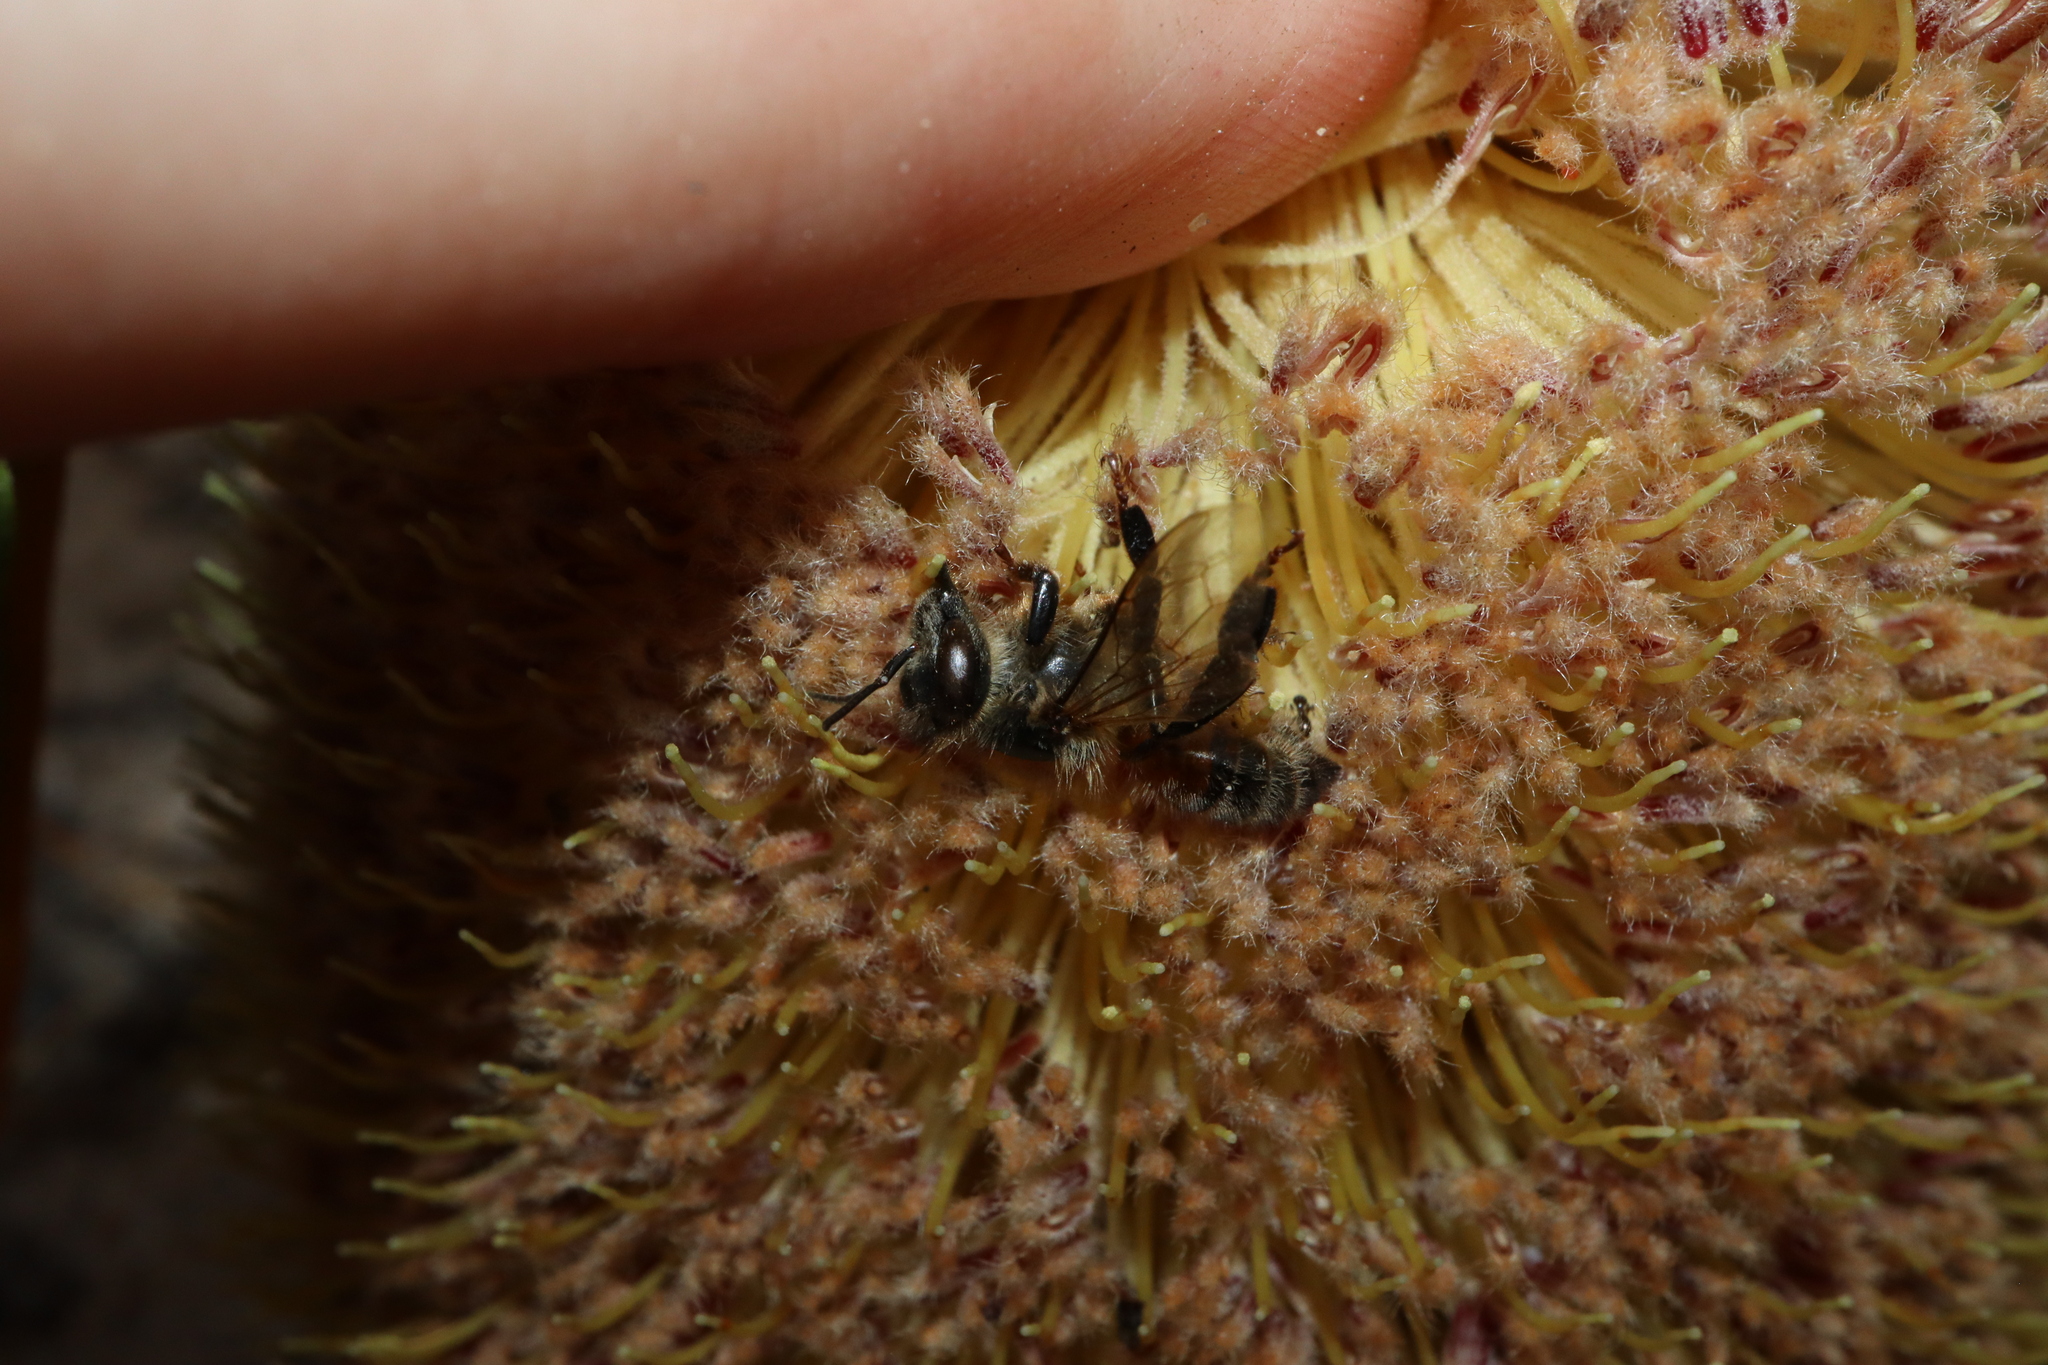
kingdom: Animalia
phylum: Arthropoda
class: Insecta
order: Hymenoptera
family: Apidae
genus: Apis
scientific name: Apis mellifera
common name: Honey bee
